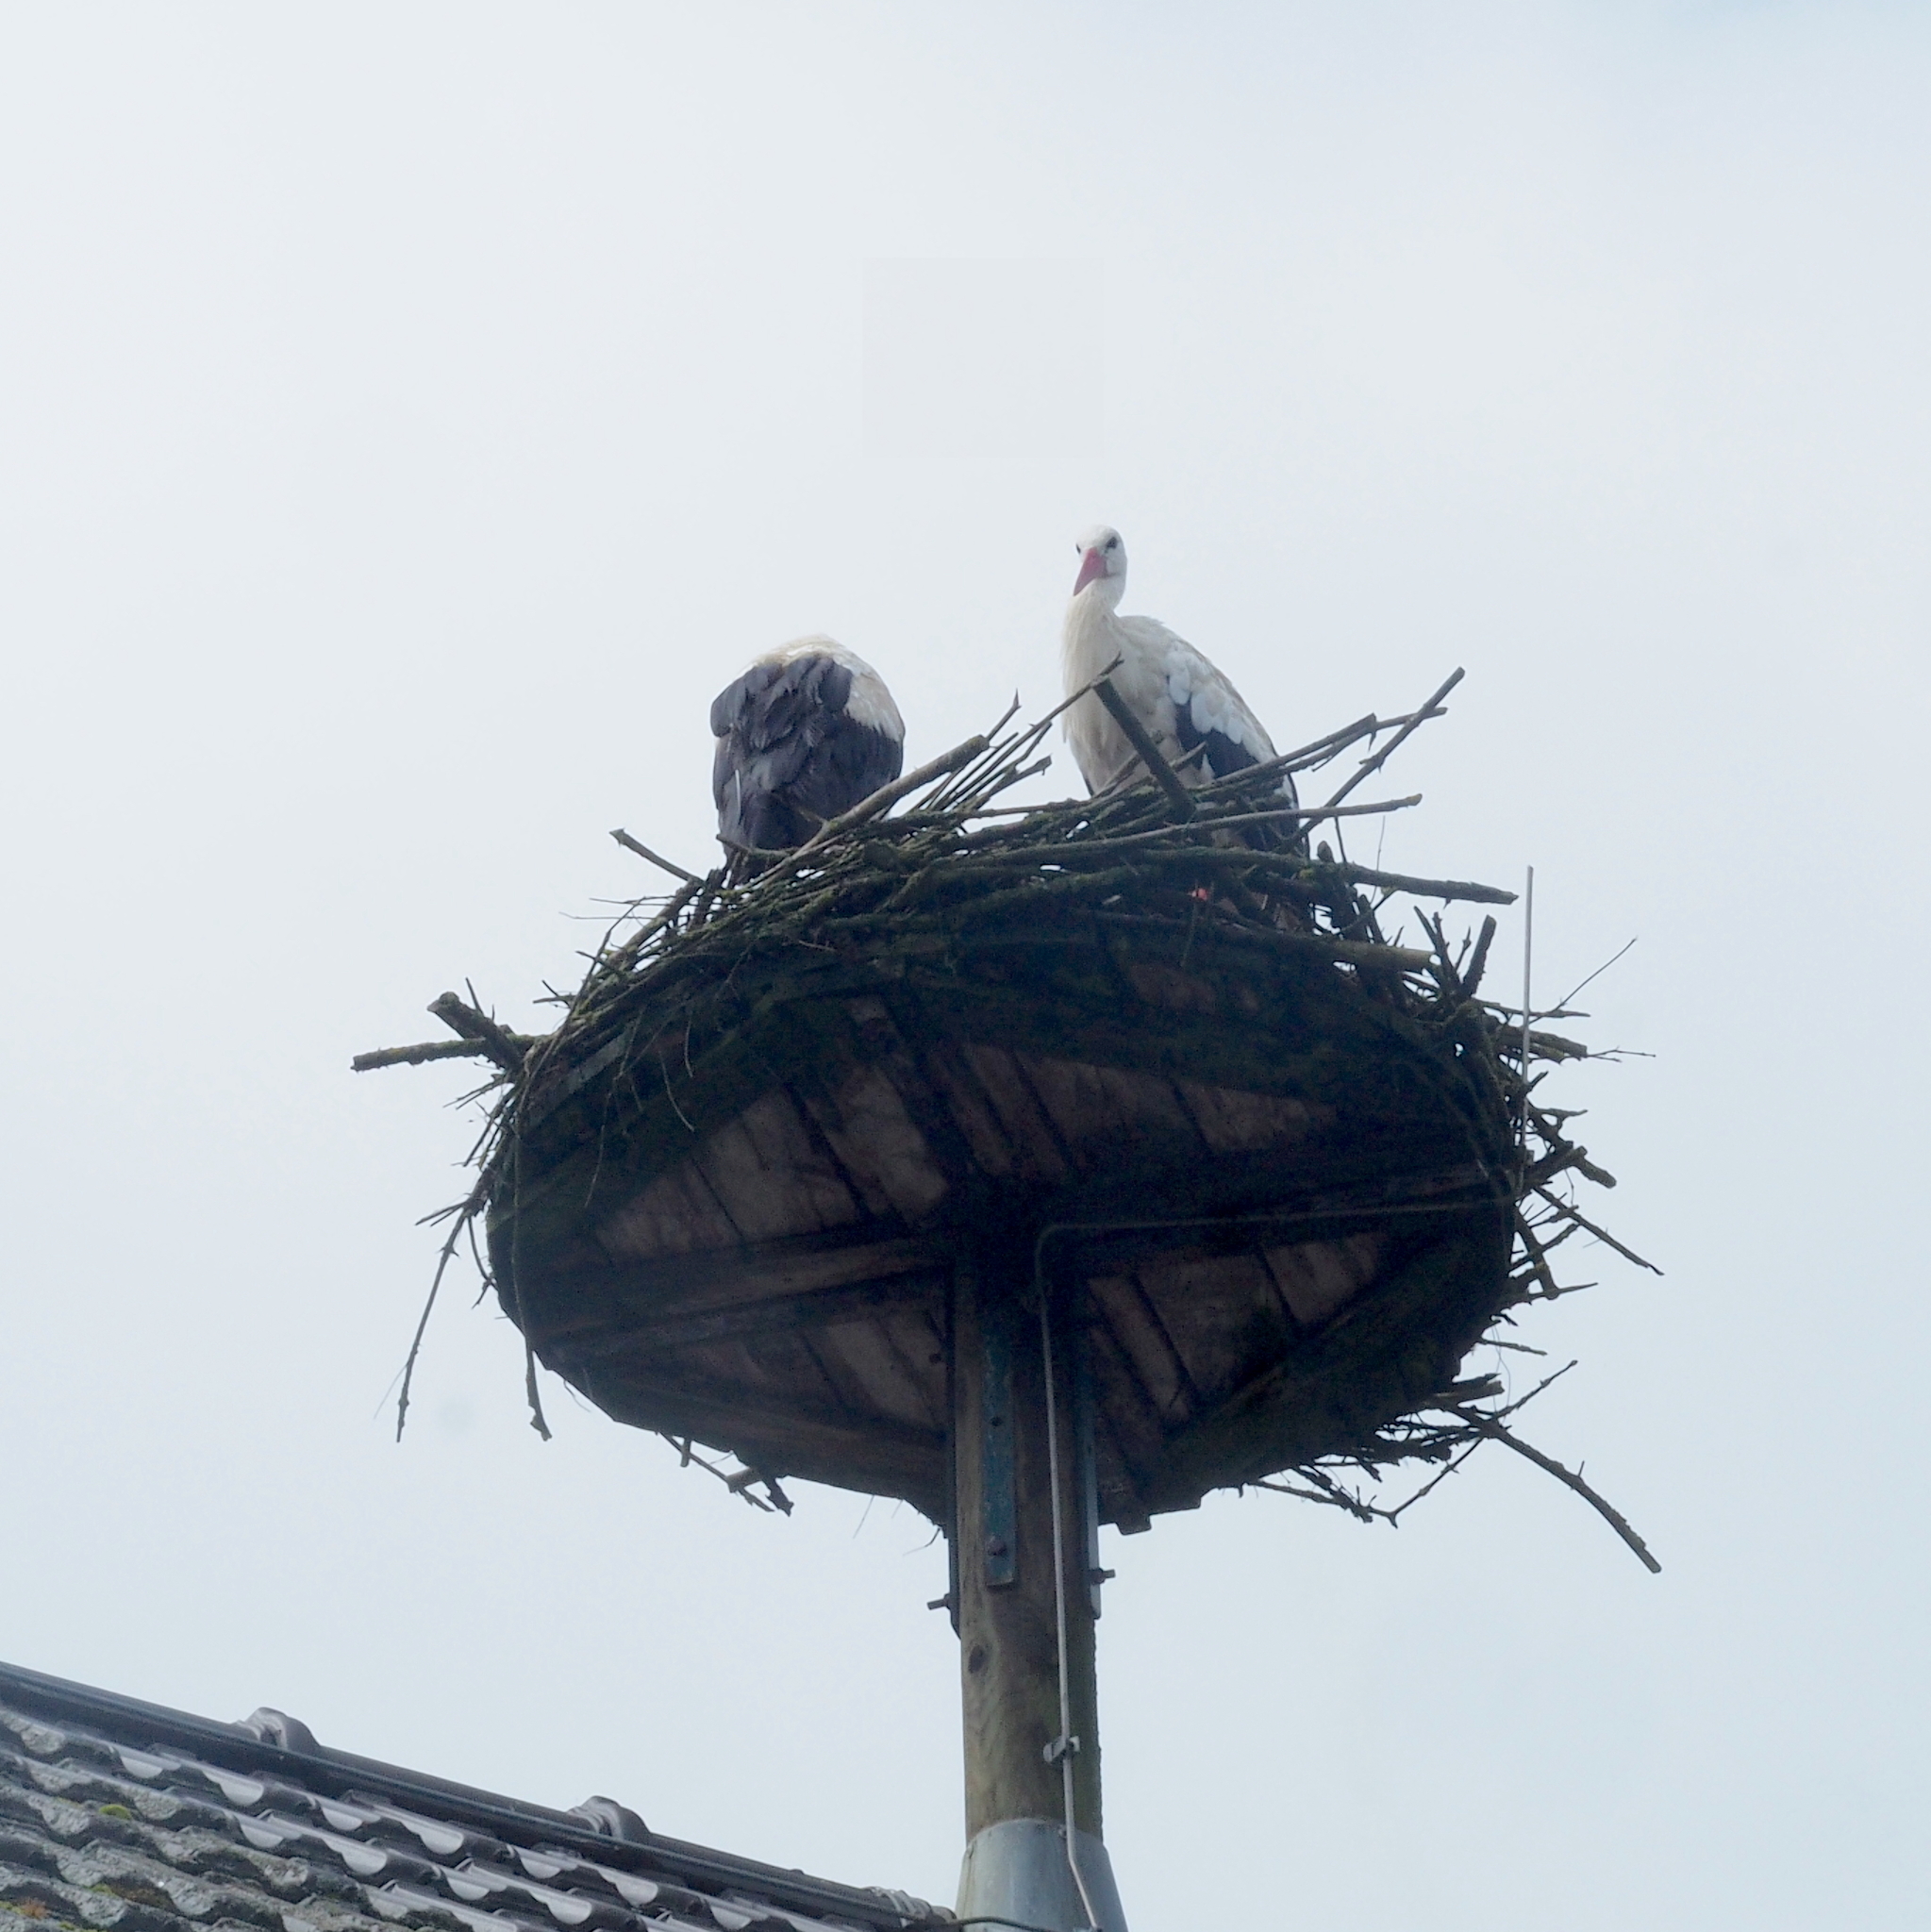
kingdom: Animalia
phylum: Chordata
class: Aves
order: Ciconiiformes
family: Ciconiidae
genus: Ciconia
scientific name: Ciconia ciconia
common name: White stork
